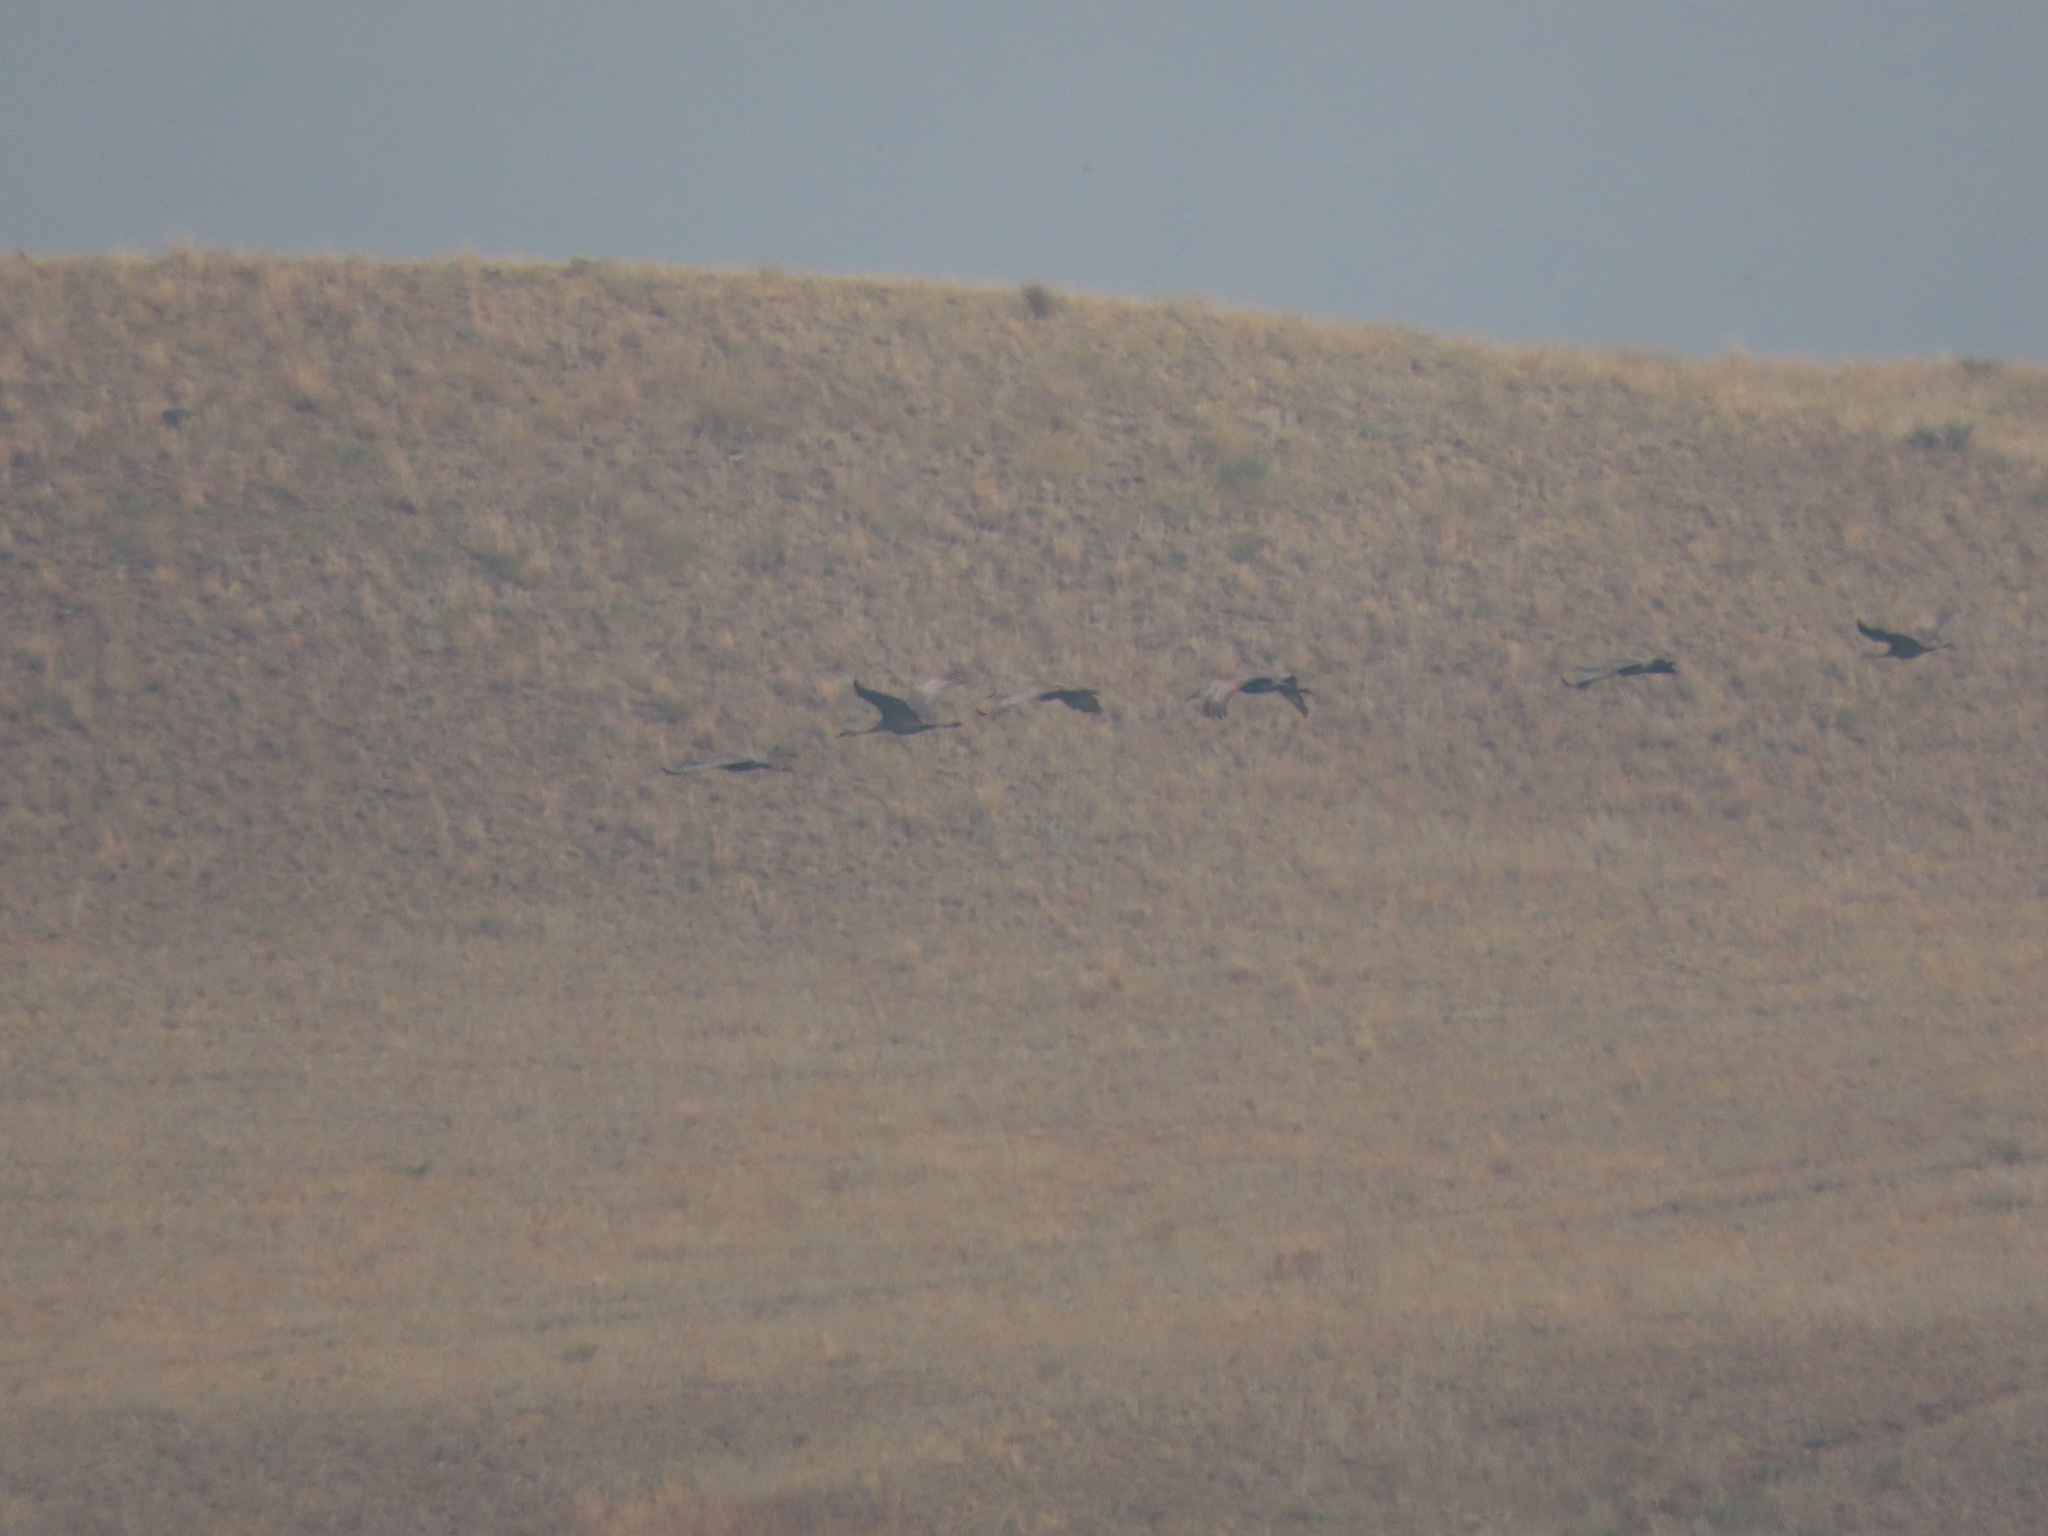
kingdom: Animalia
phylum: Chordata
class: Aves
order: Gruiformes
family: Gruidae
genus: Grus
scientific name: Grus canadensis
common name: Sandhill crane
